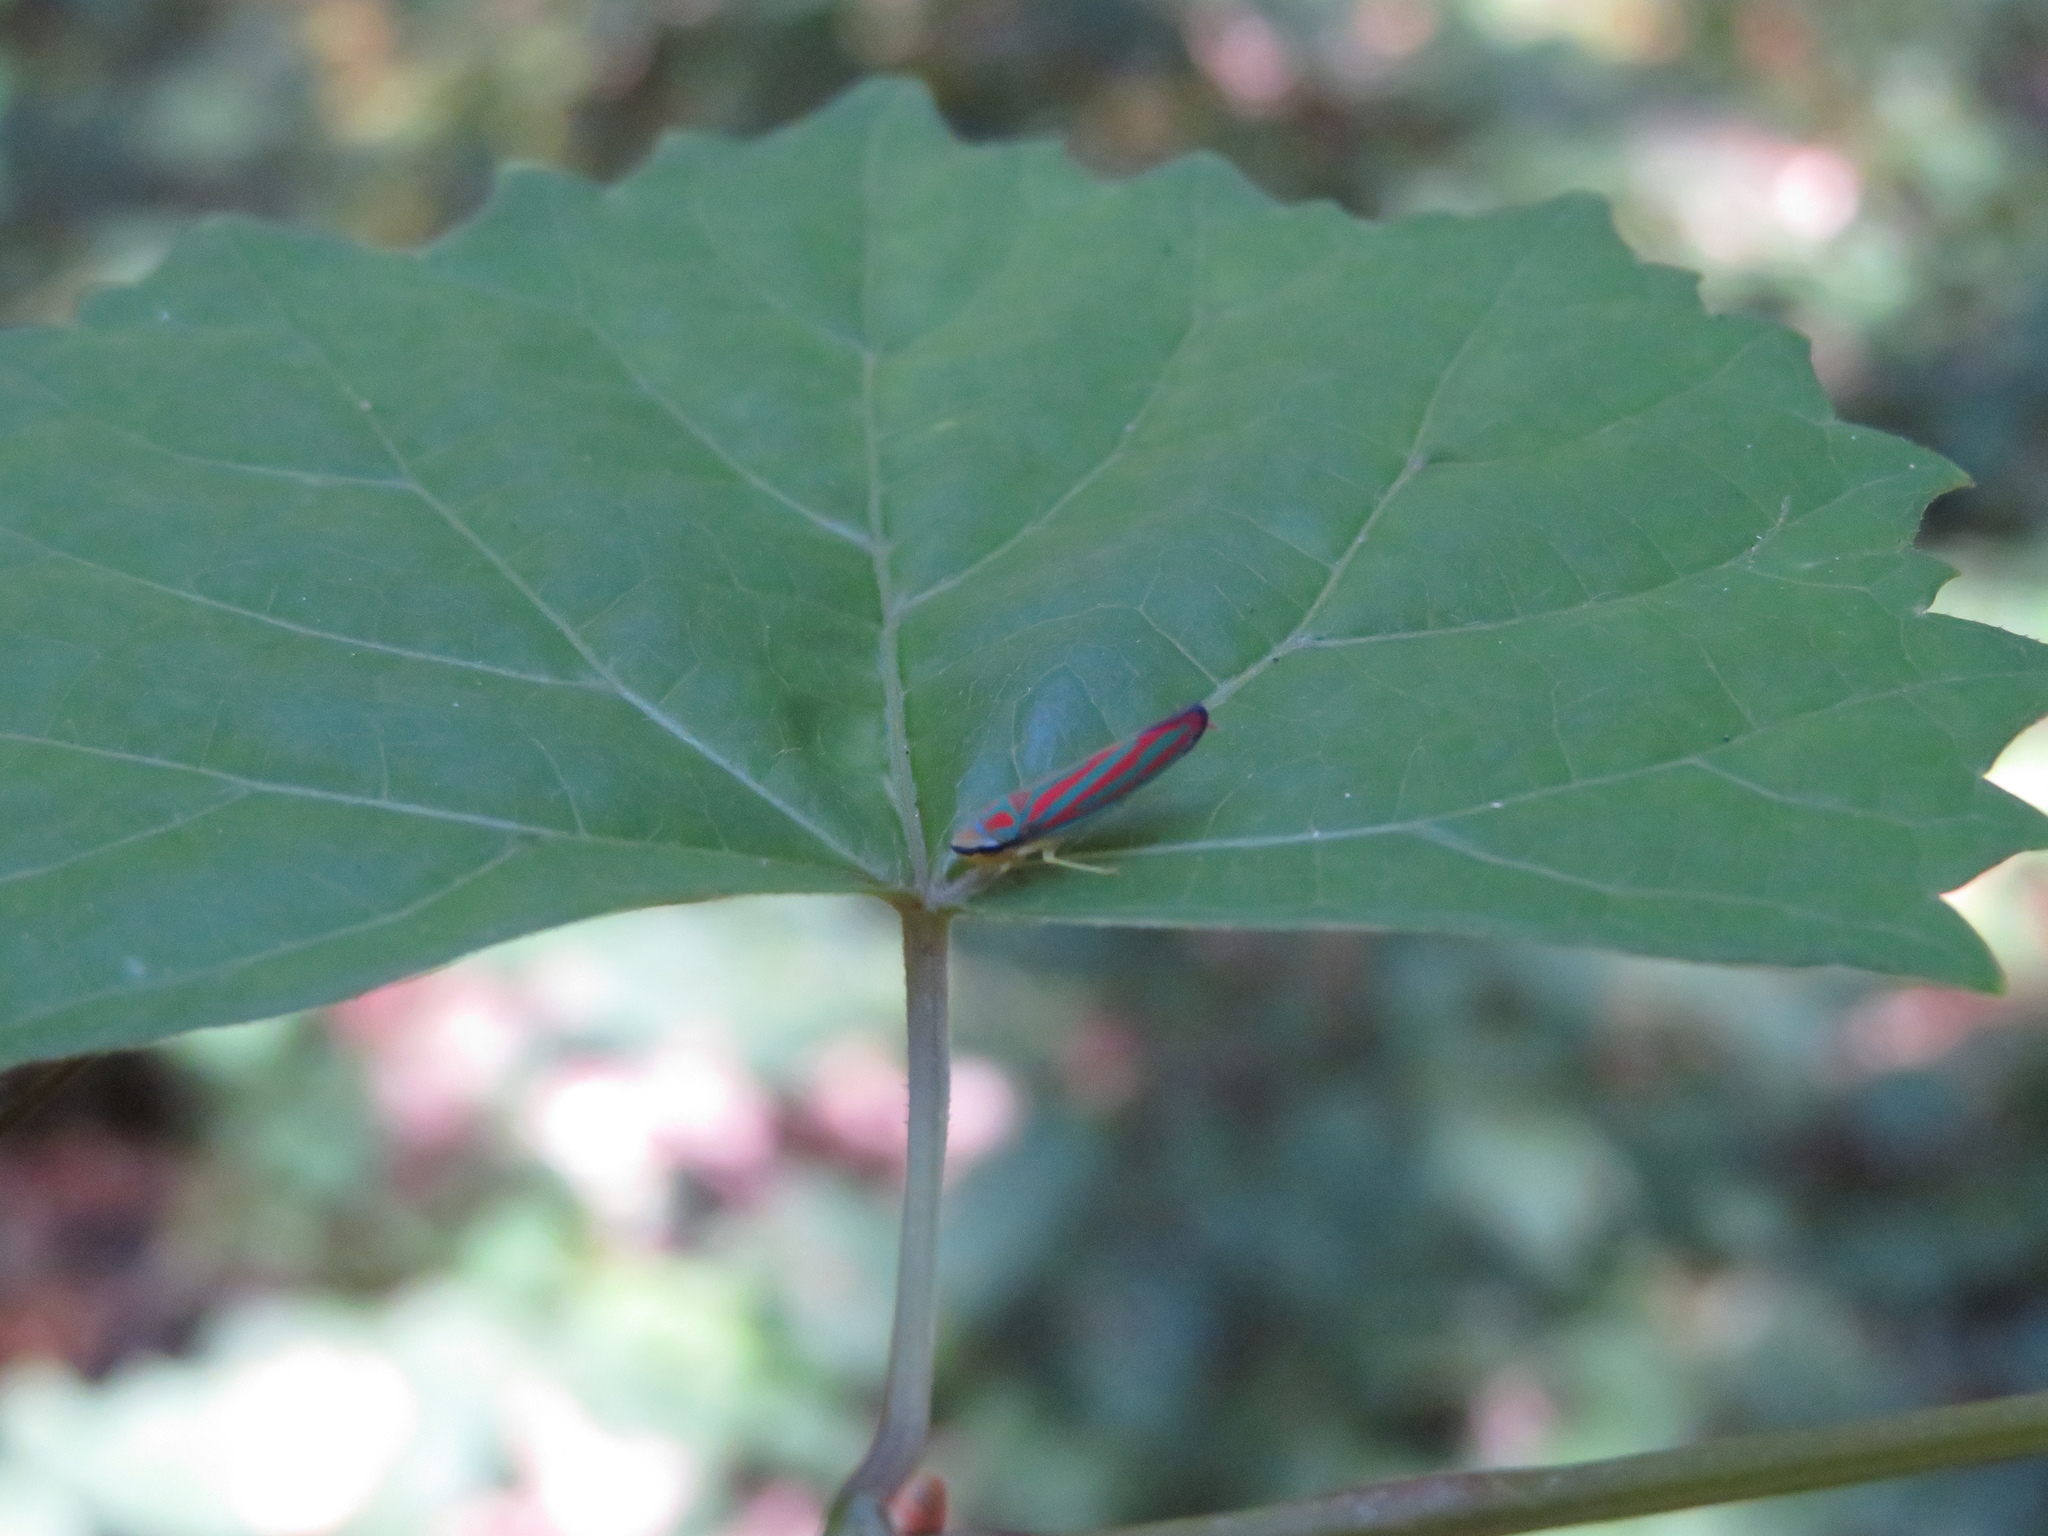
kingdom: Animalia
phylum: Arthropoda
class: Insecta
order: Hemiptera
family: Cicadellidae
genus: Graphocephala
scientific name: Graphocephala coccinea
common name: Candy-striped leafhopper
